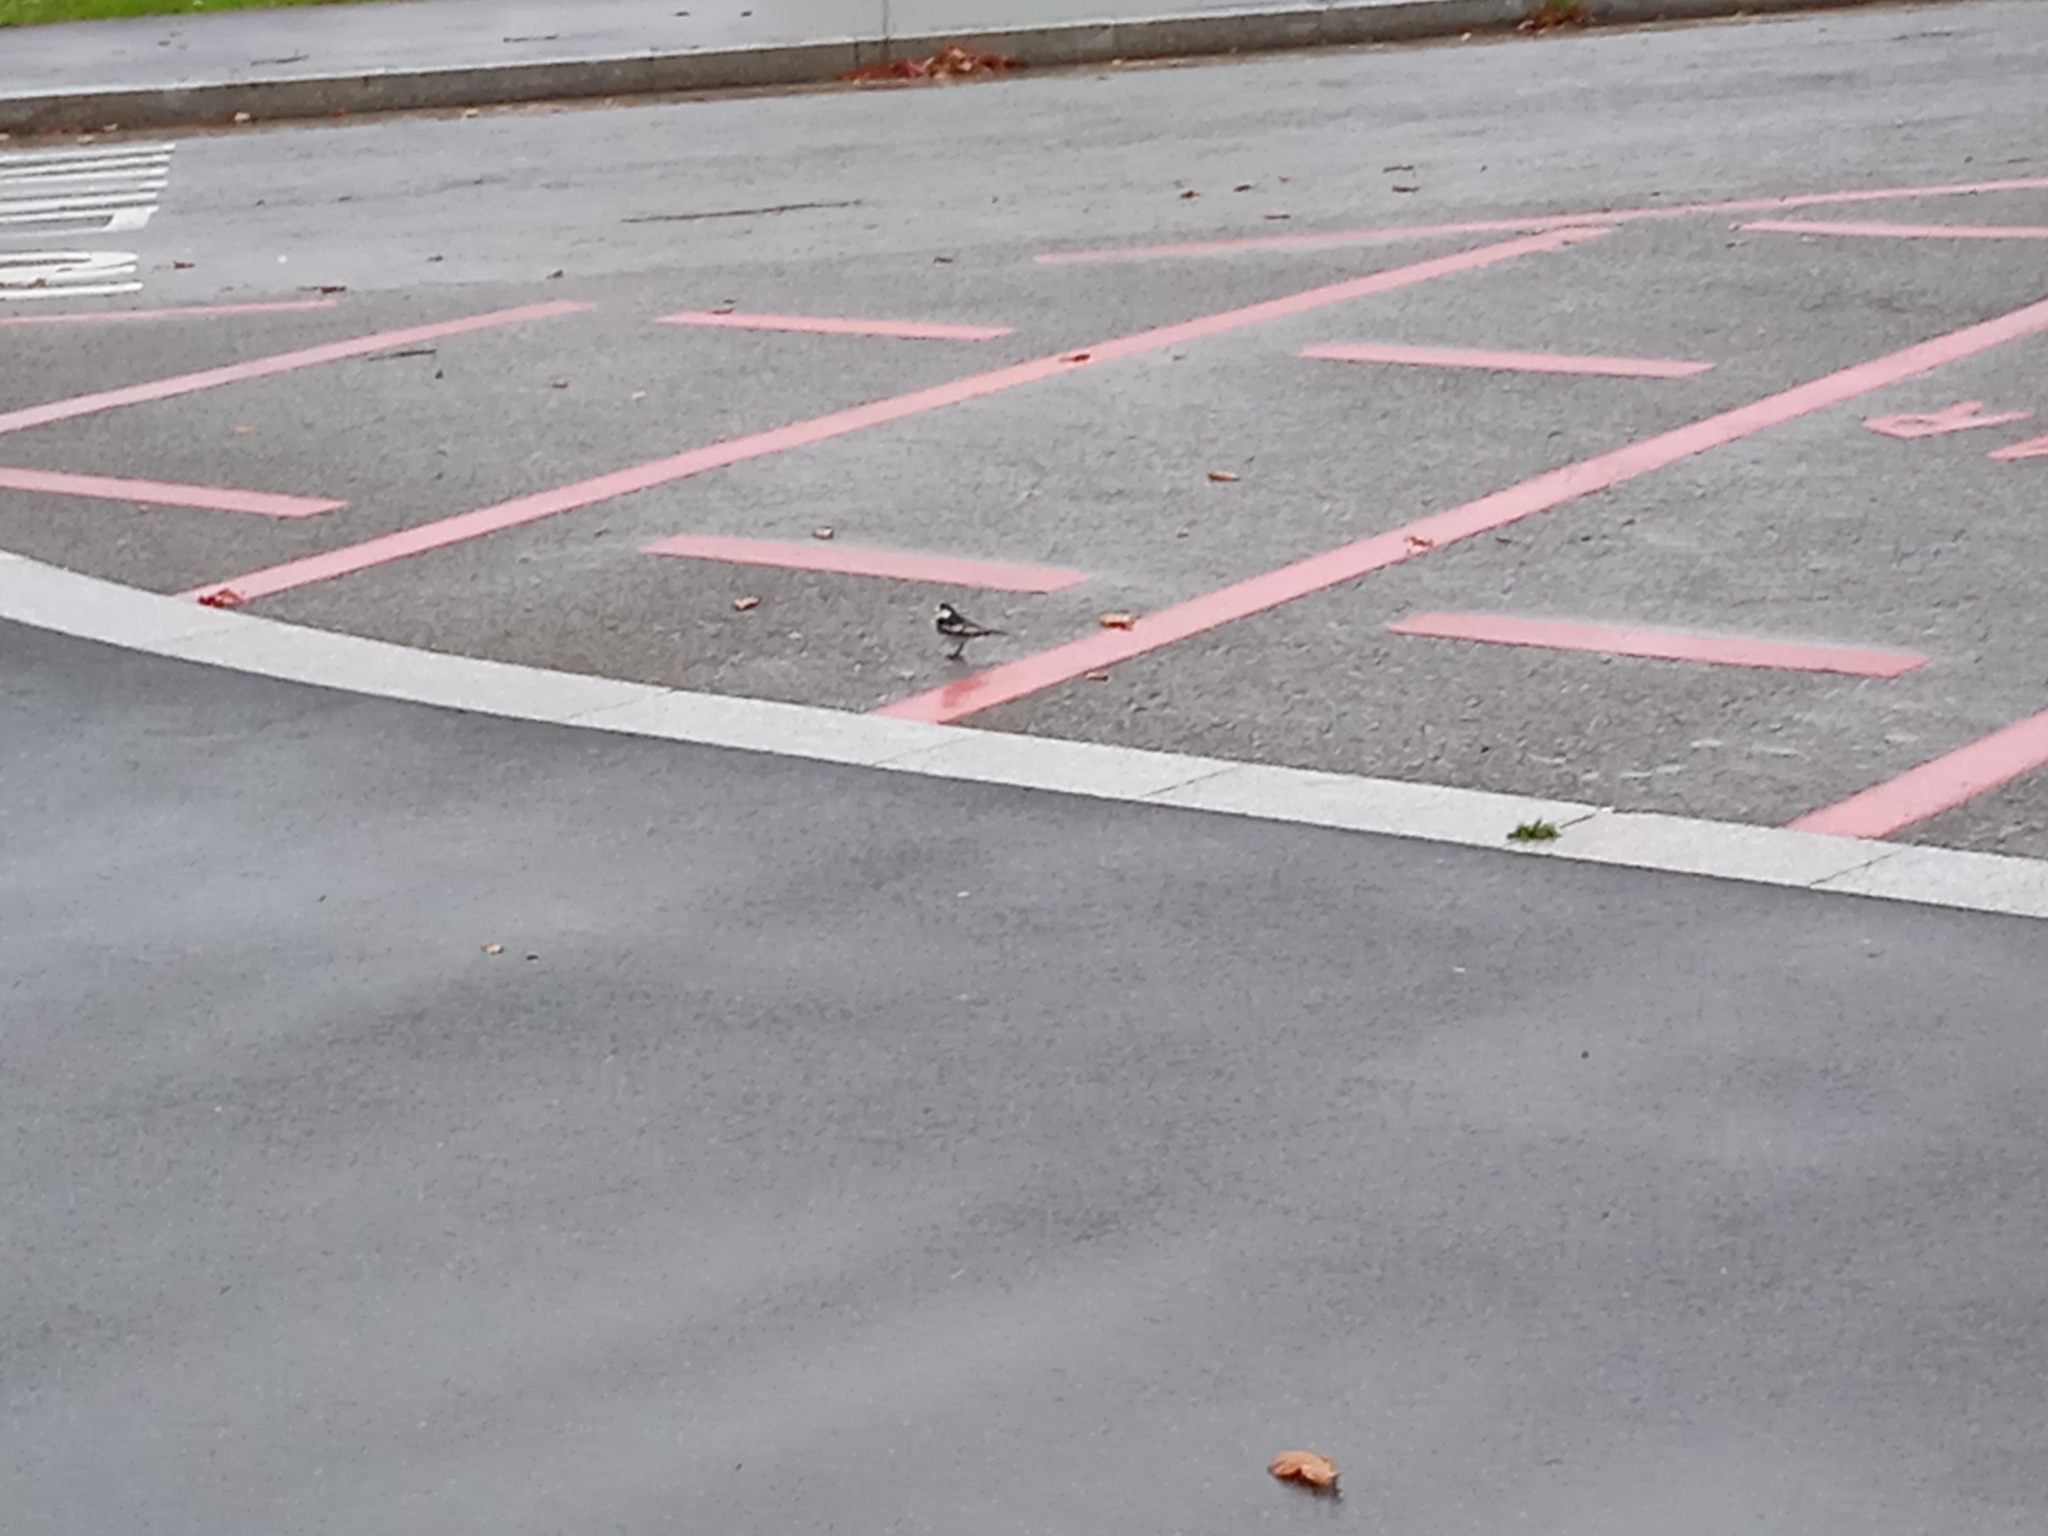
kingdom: Animalia
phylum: Chordata
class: Aves
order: Passeriformes
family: Motacillidae
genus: Motacilla
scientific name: Motacilla alba
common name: White wagtail
